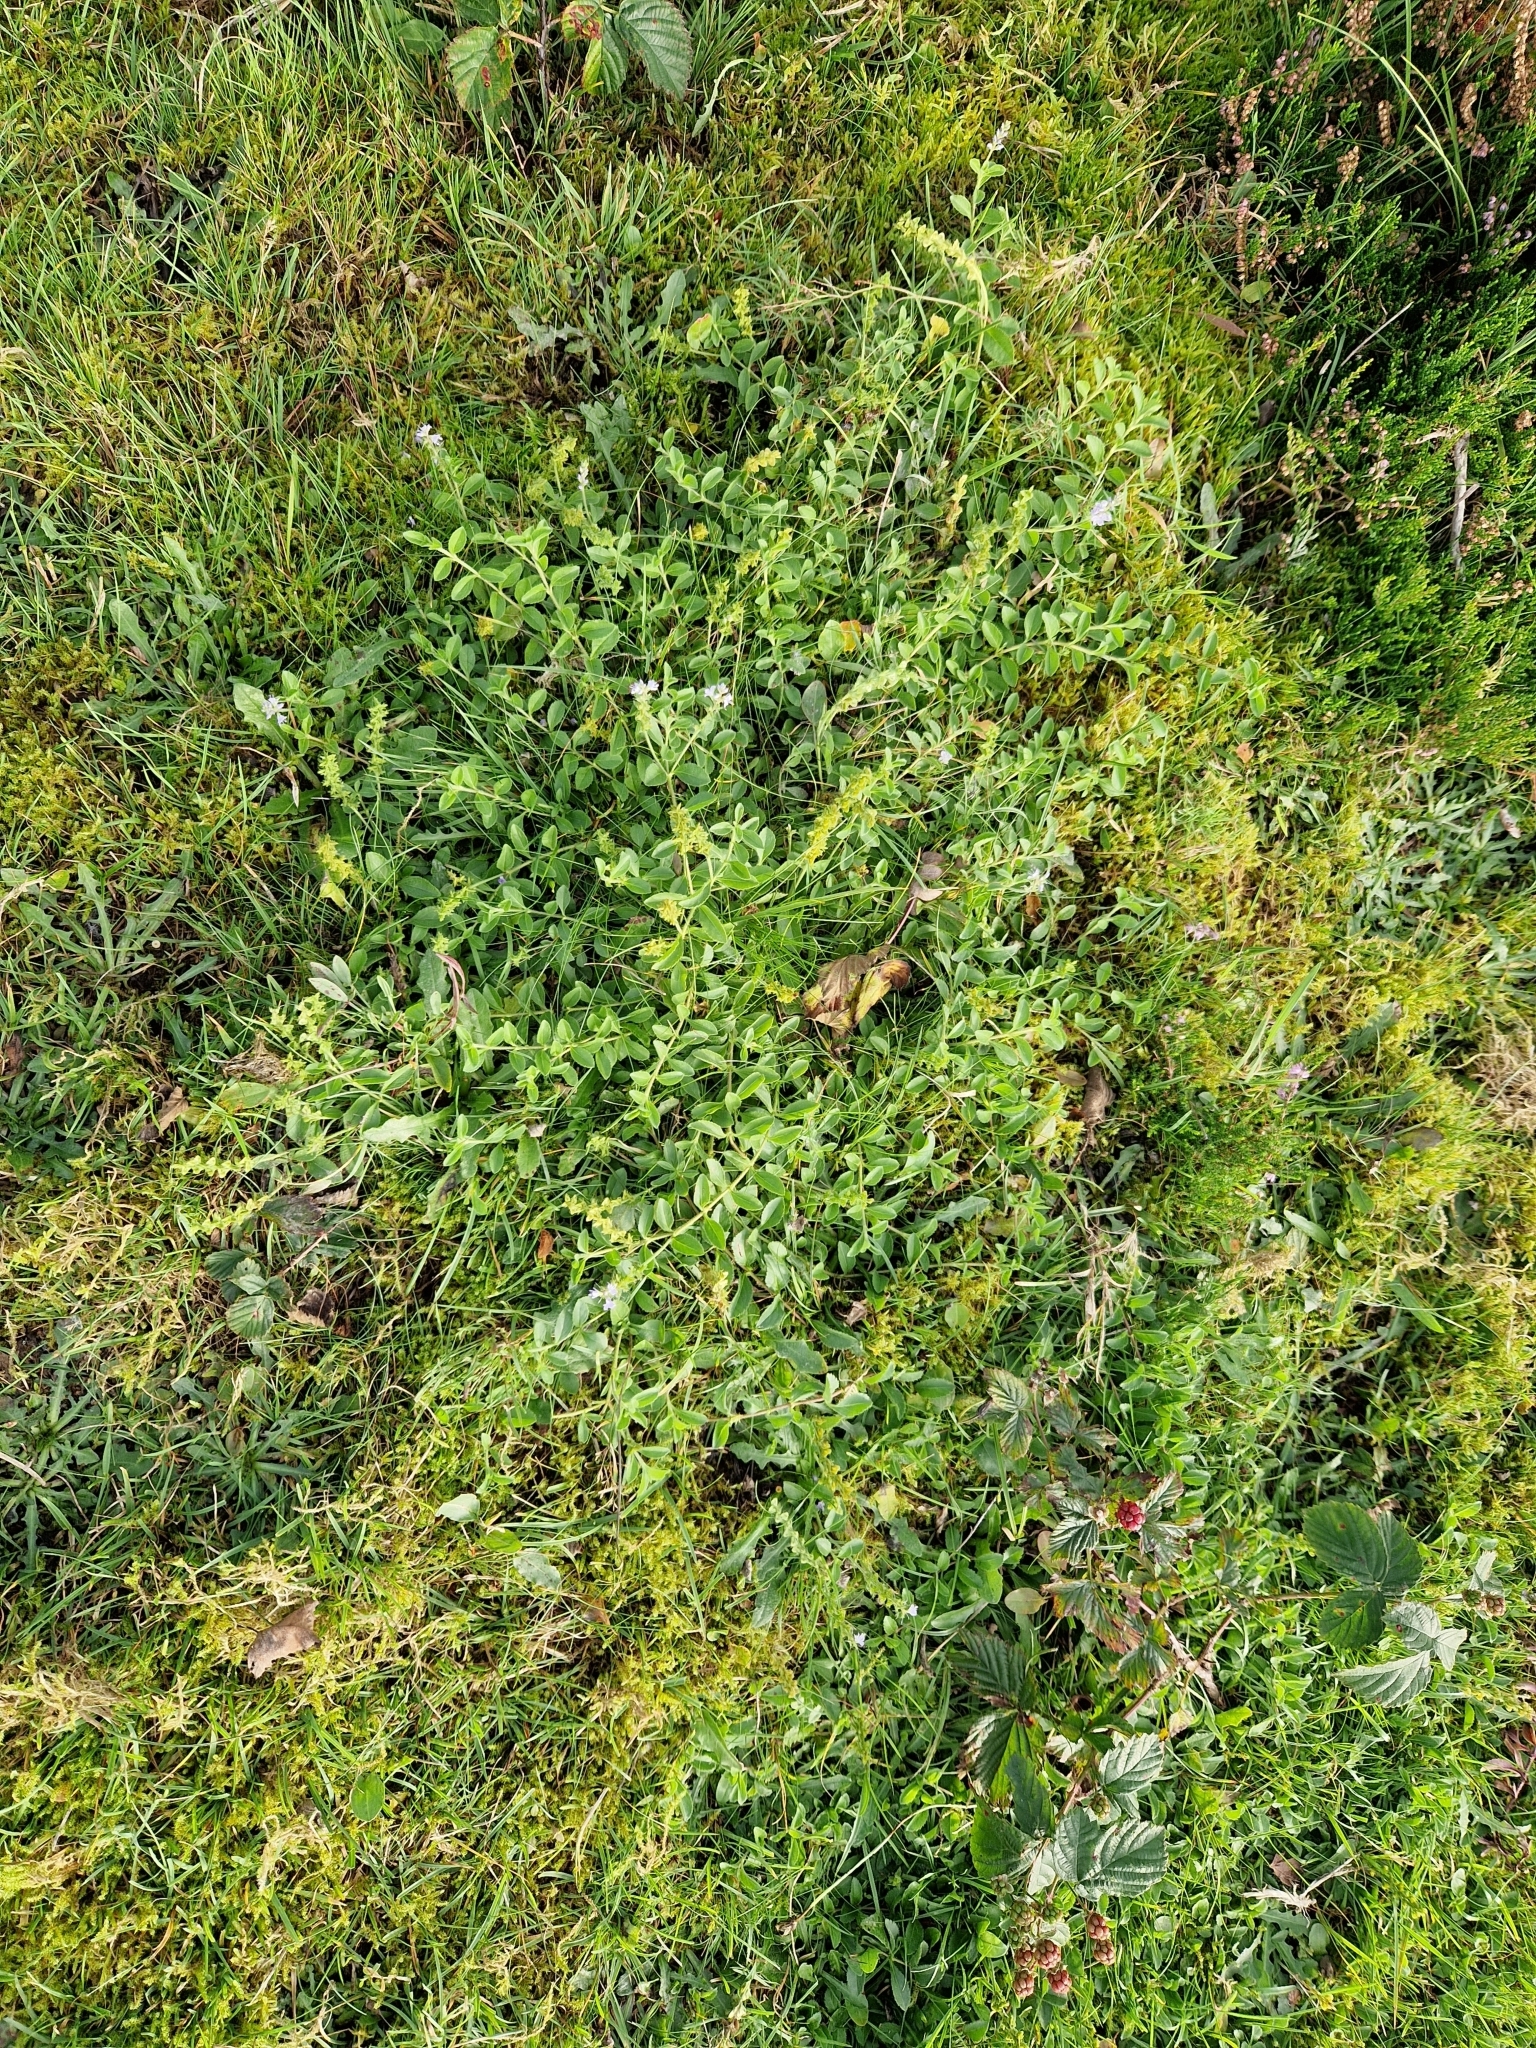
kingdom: Plantae
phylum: Tracheophyta
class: Magnoliopsida
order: Lamiales
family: Plantaginaceae
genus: Veronica
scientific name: Veronica officinalis
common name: Common speedwell
